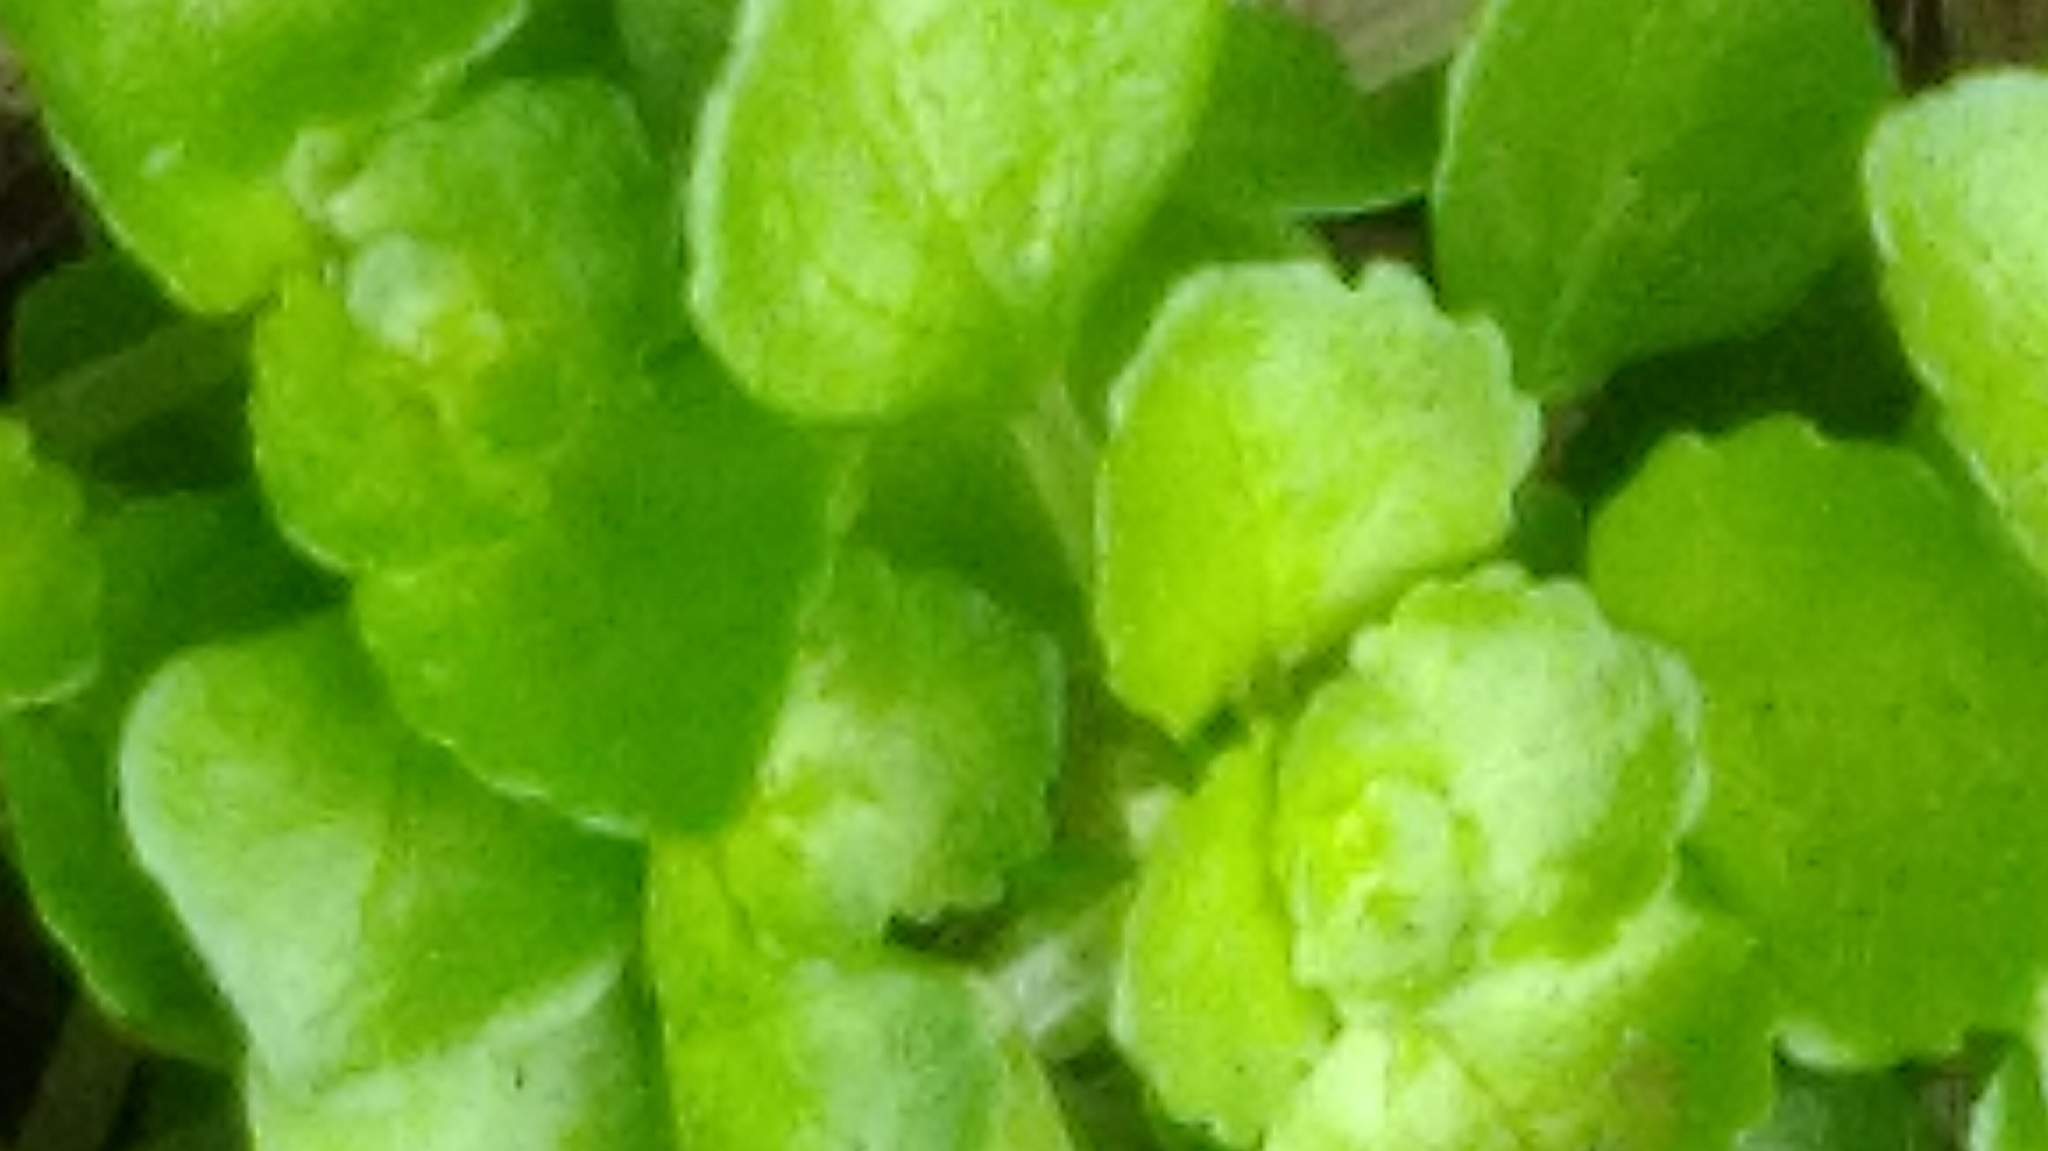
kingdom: Plantae
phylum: Tracheophyta
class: Magnoliopsida
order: Rosales
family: Urticaceae
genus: Pilea
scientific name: Pilea peploides
